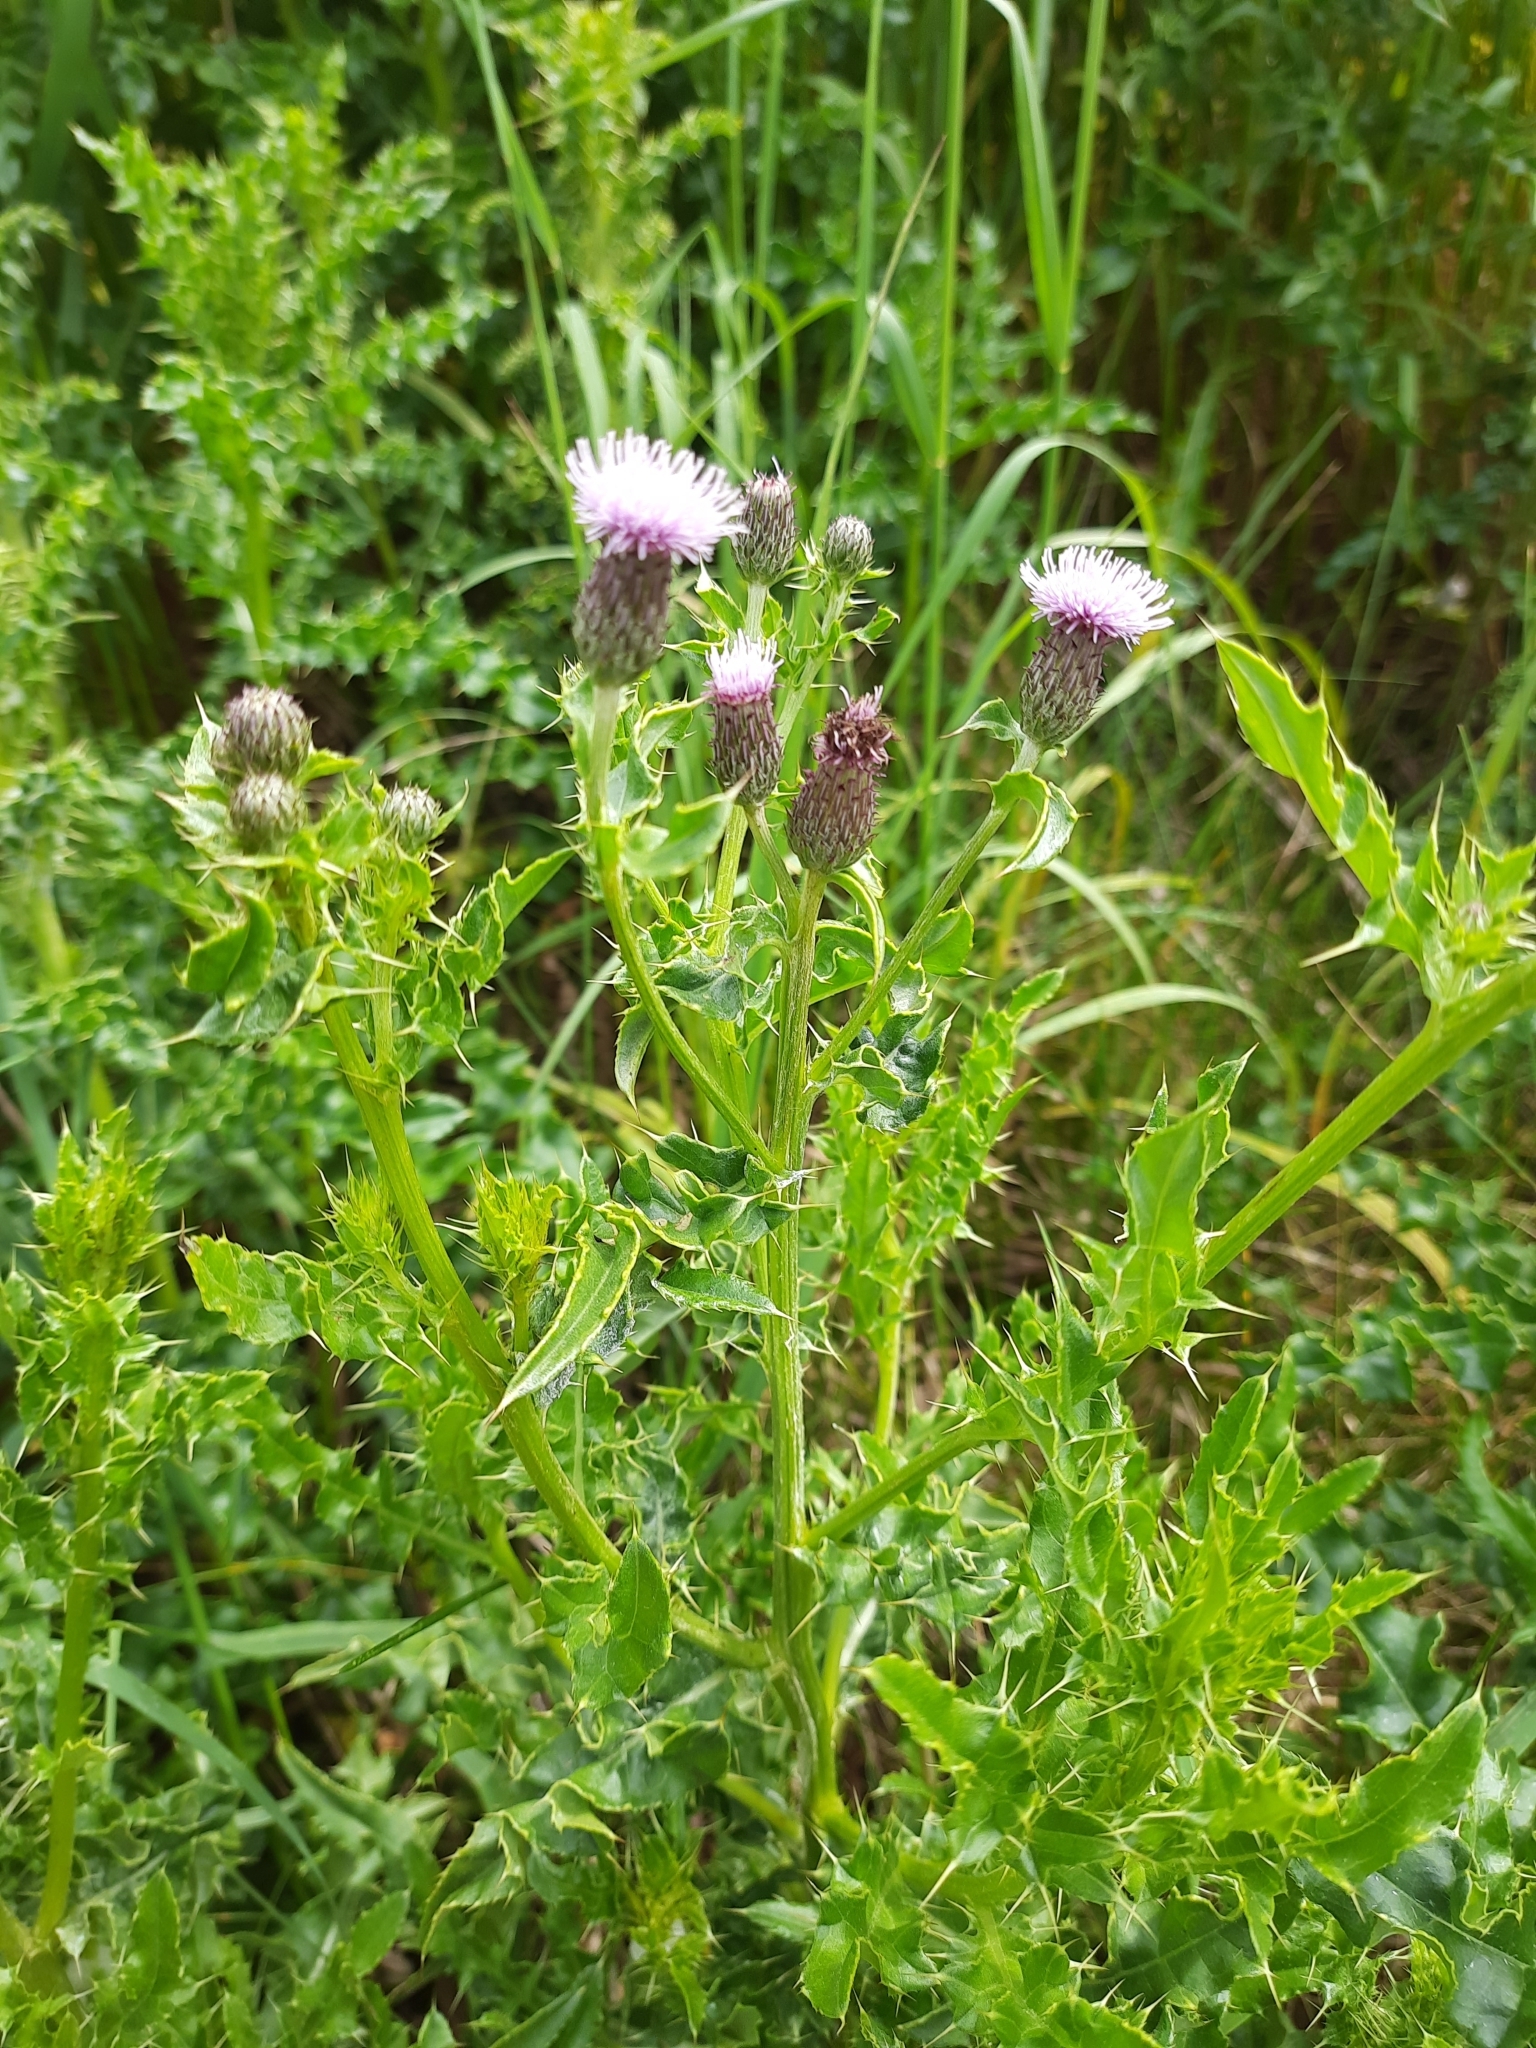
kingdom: Plantae
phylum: Tracheophyta
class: Magnoliopsida
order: Asterales
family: Asteraceae
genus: Cirsium
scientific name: Cirsium arvense
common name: Creeping thistle
